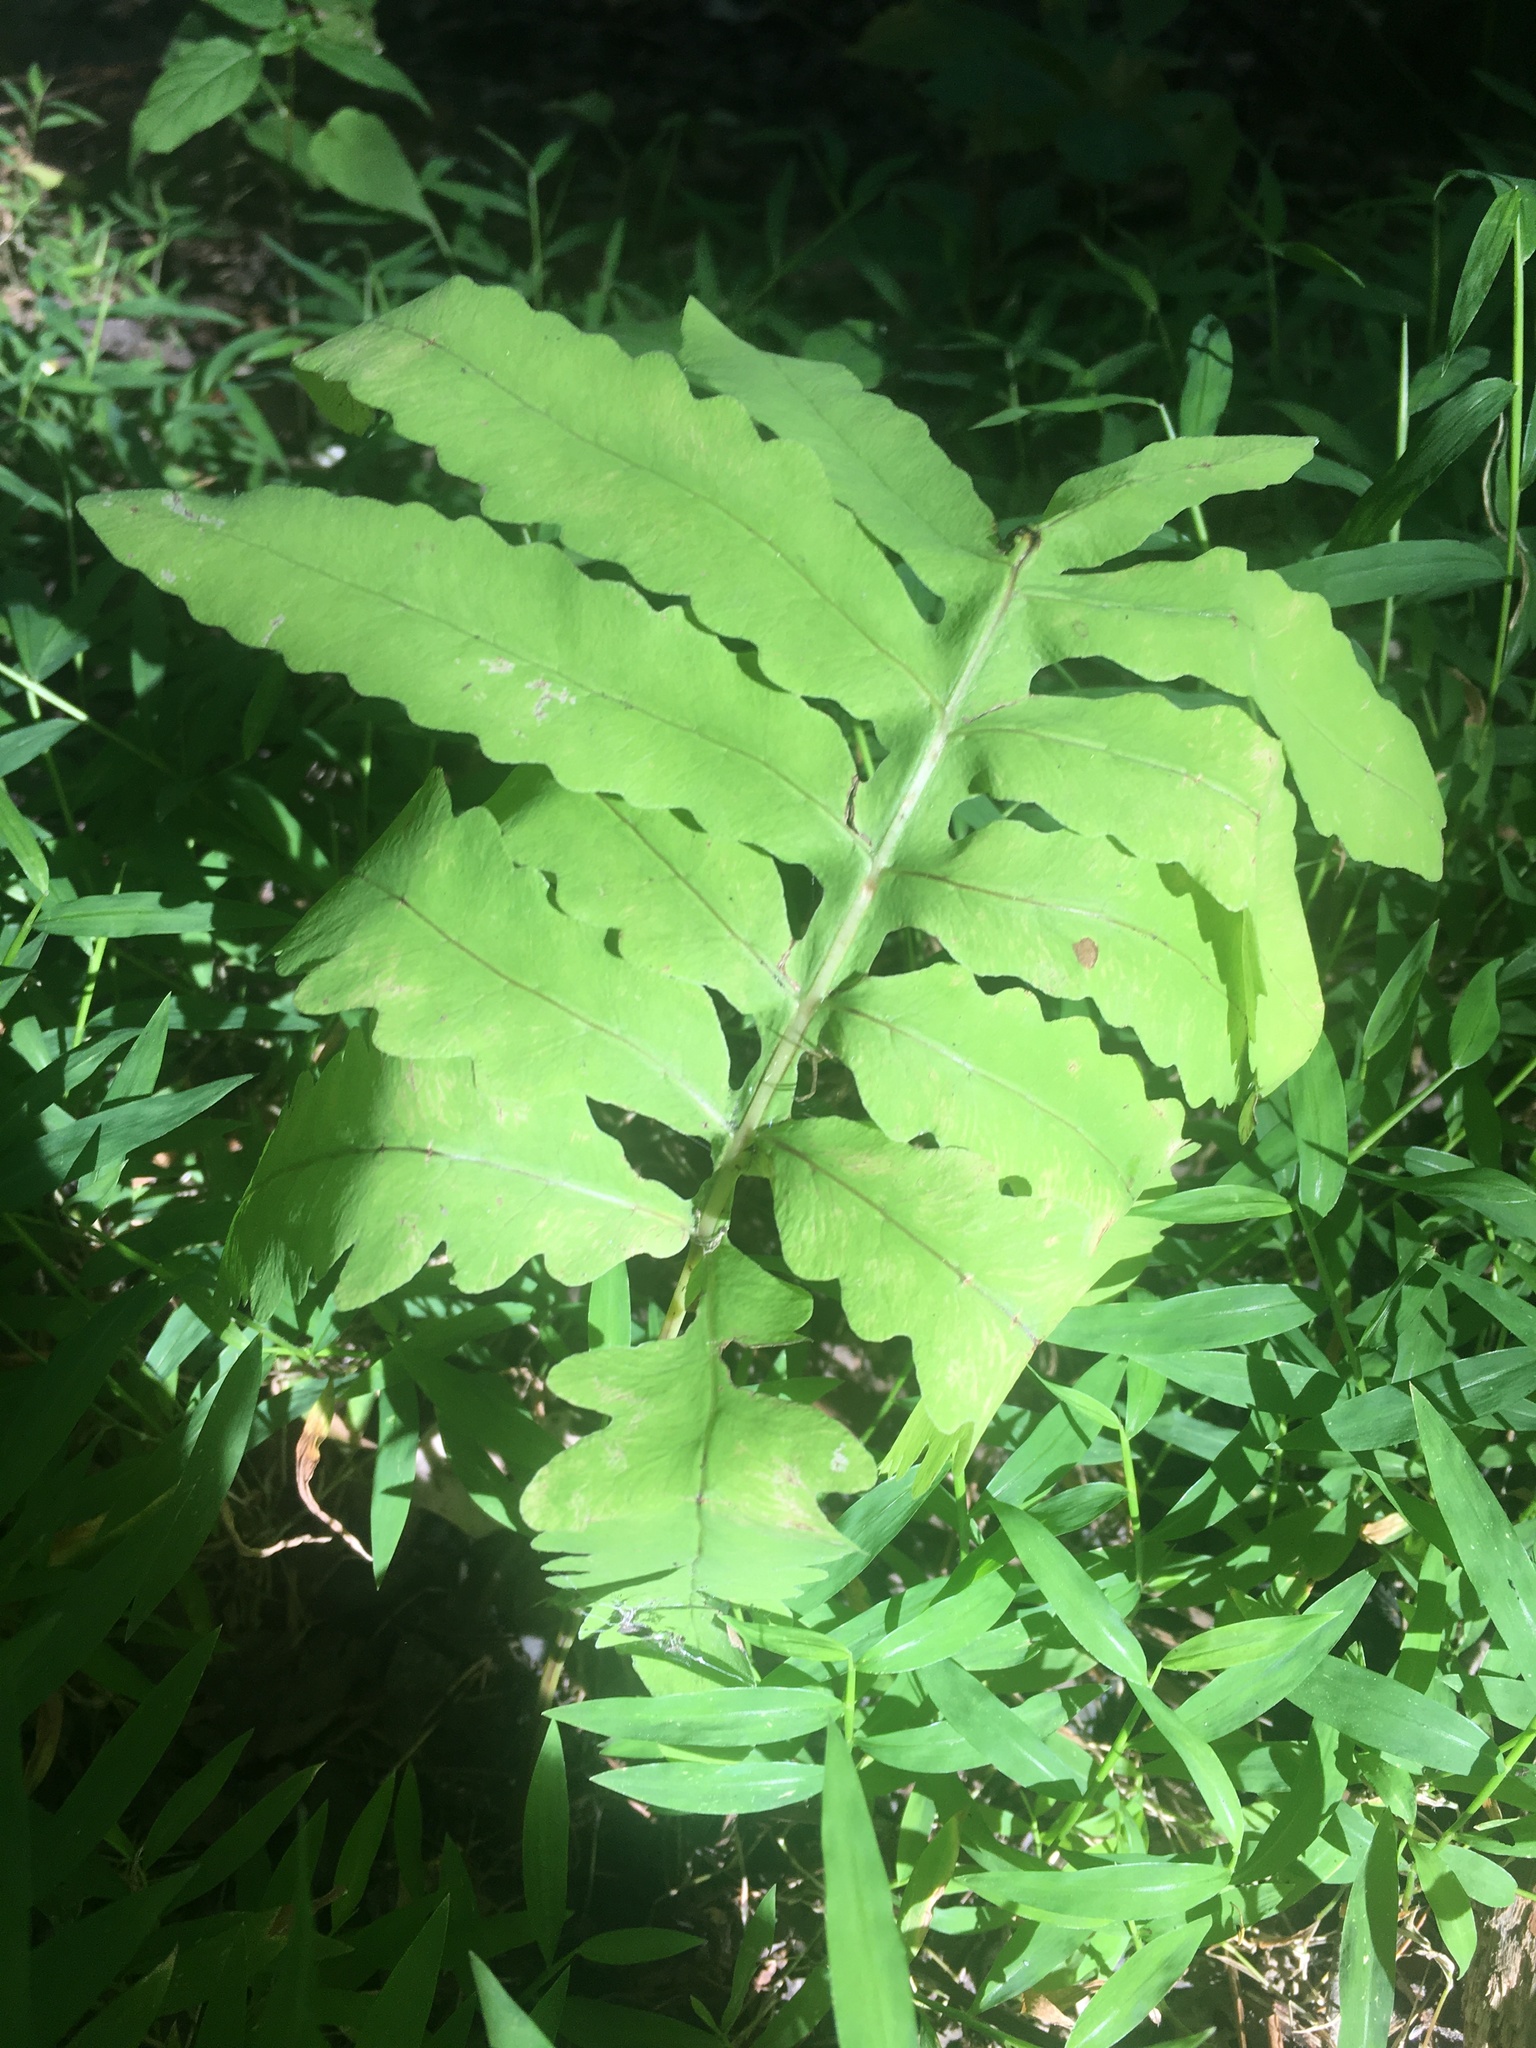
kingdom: Plantae
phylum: Tracheophyta
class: Polypodiopsida
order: Polypodiales
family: Onocleaceae
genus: Onoclea
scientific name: Onoclea sensibilis
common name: Sensitive fern
